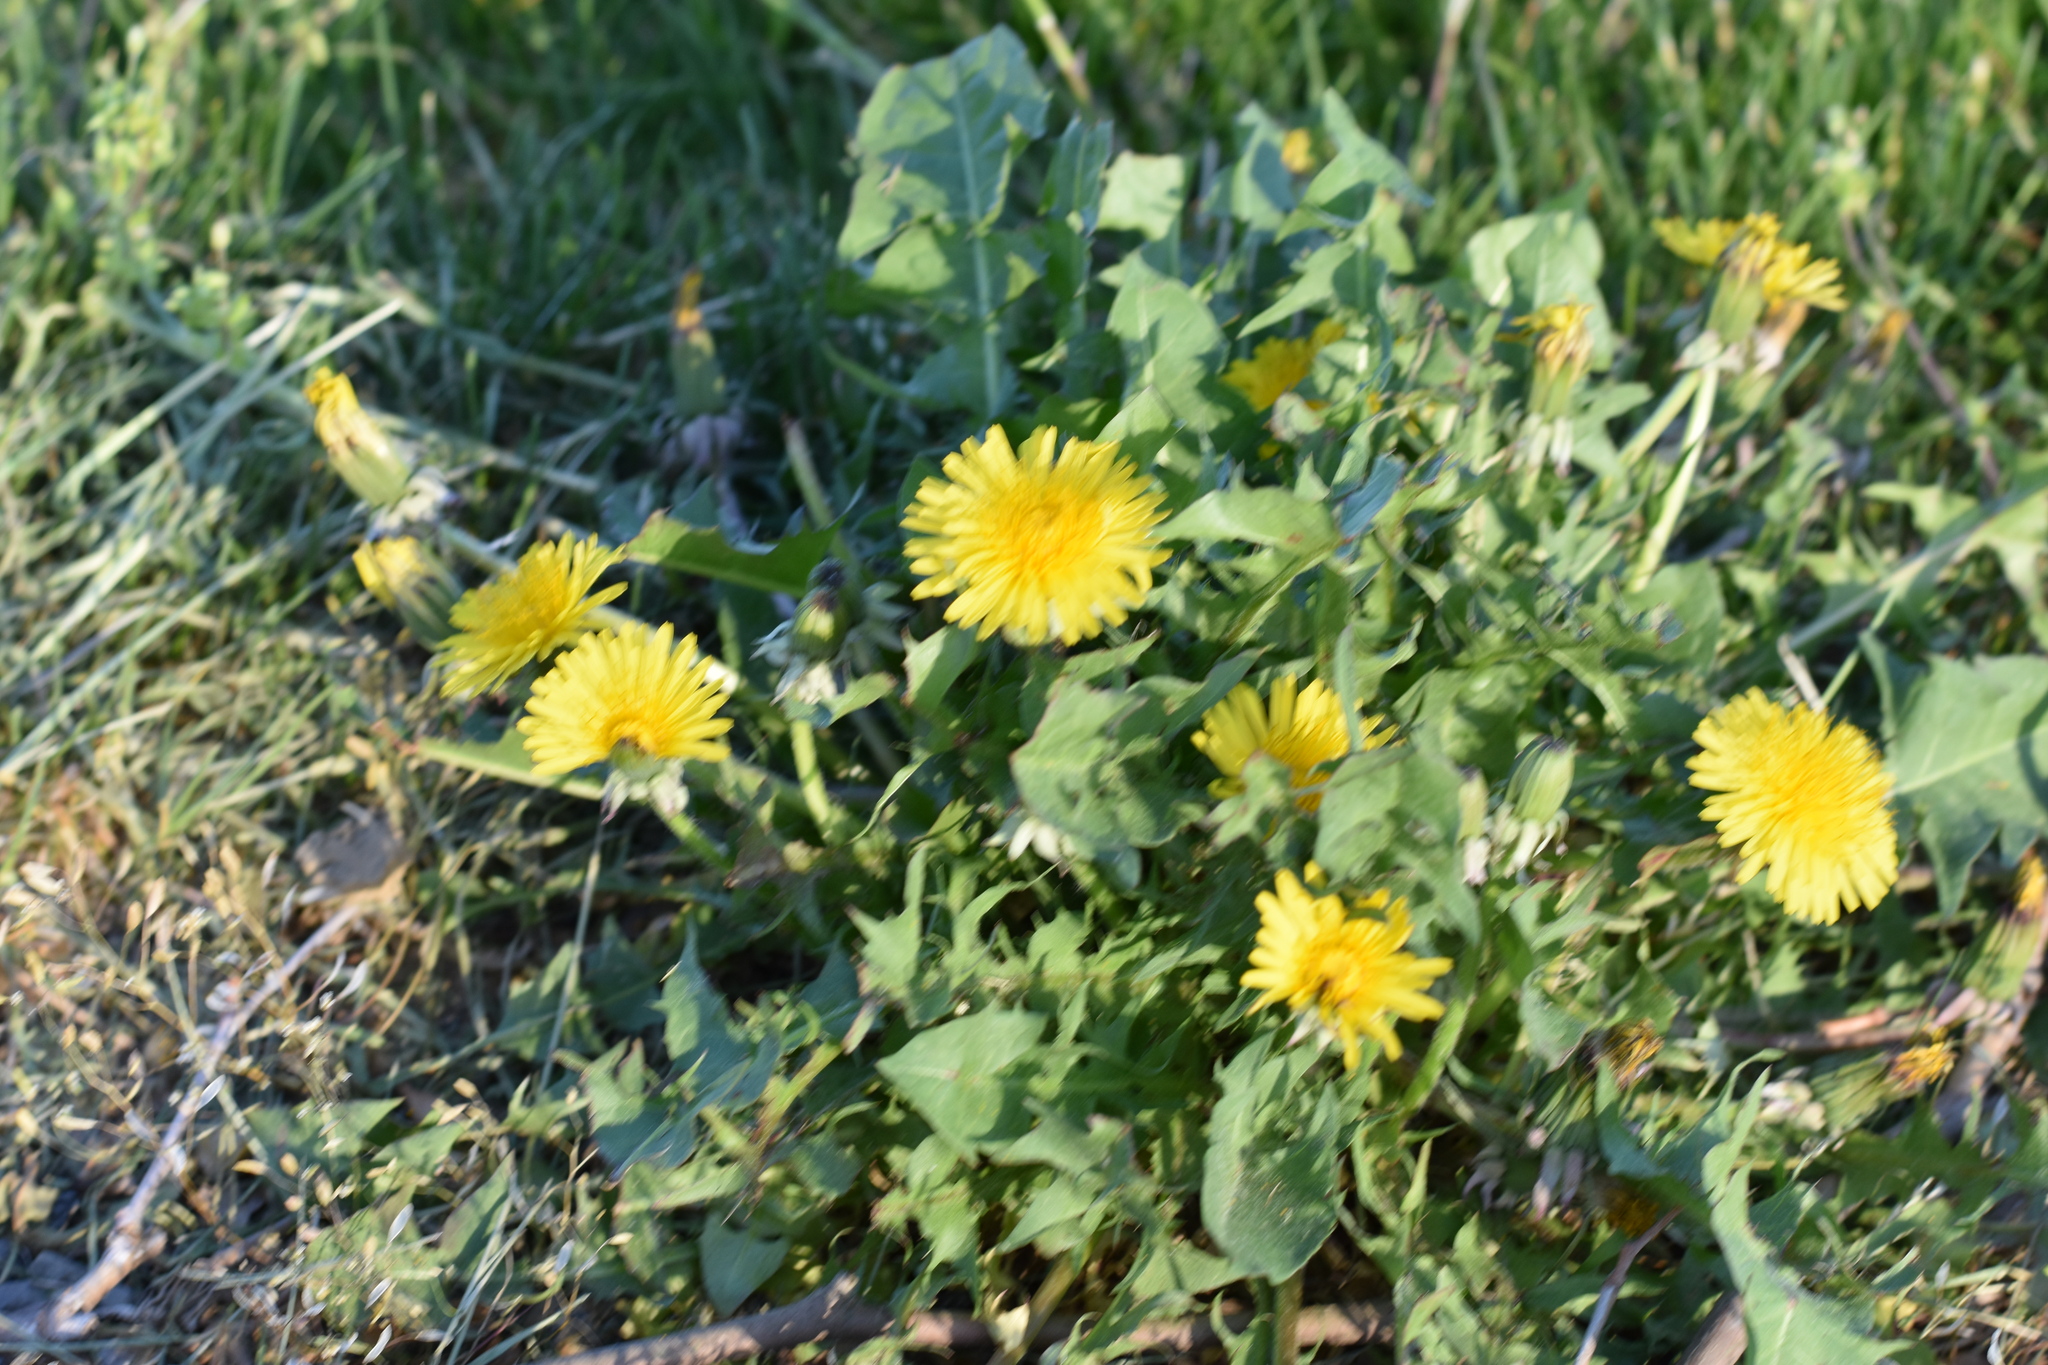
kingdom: Plantae
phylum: Tracheophyta
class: Magnoliopsida
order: Asterales
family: Asteraceae
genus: Taraxacum
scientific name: Taraxacum officinale
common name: Common dandelion
